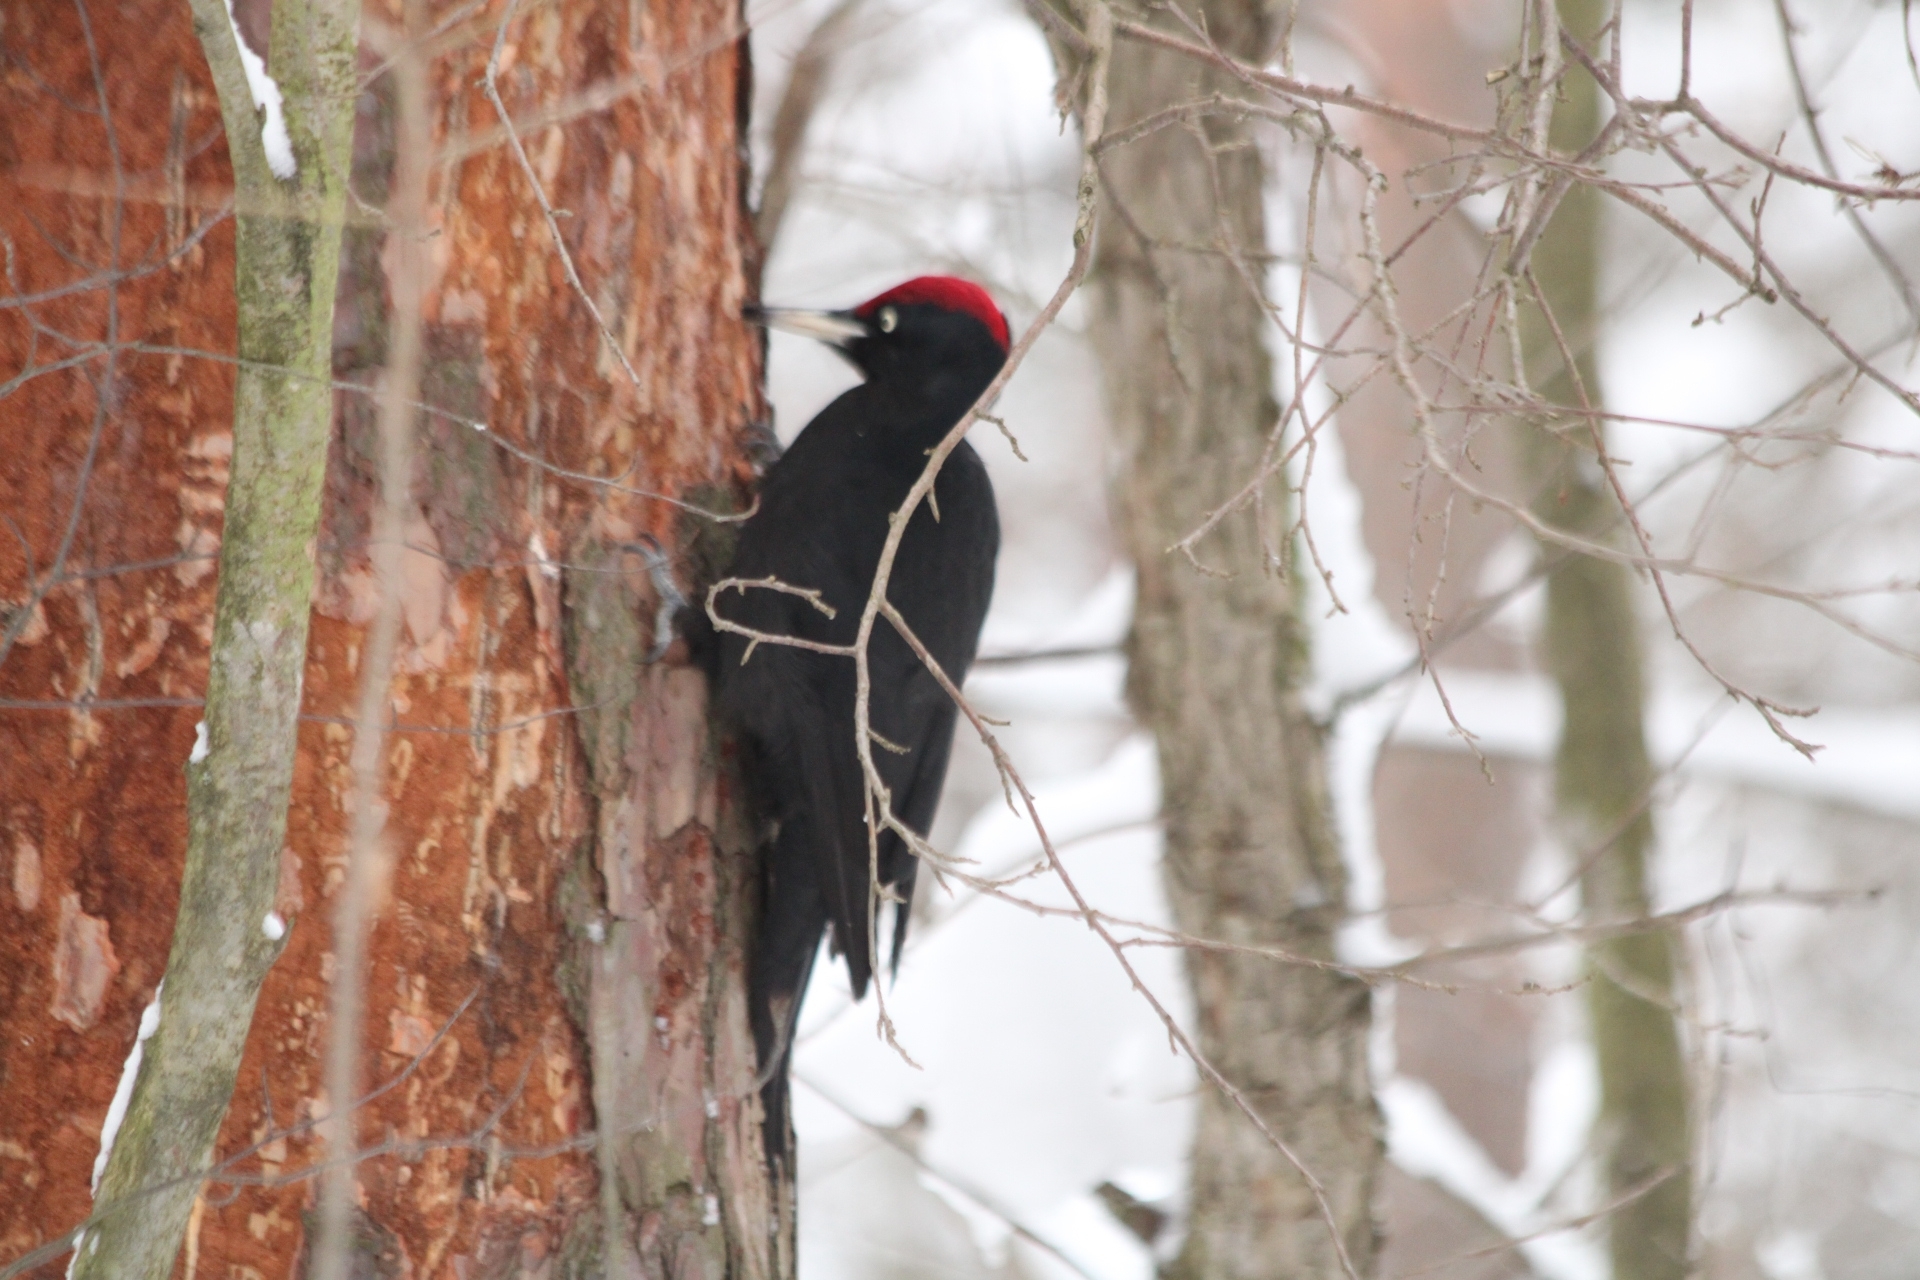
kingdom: Animalia
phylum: Chordata
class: Aves
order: Piciformes
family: Picidae
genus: Dryocopus
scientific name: Dryocopus martius
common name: Black woodpecker
